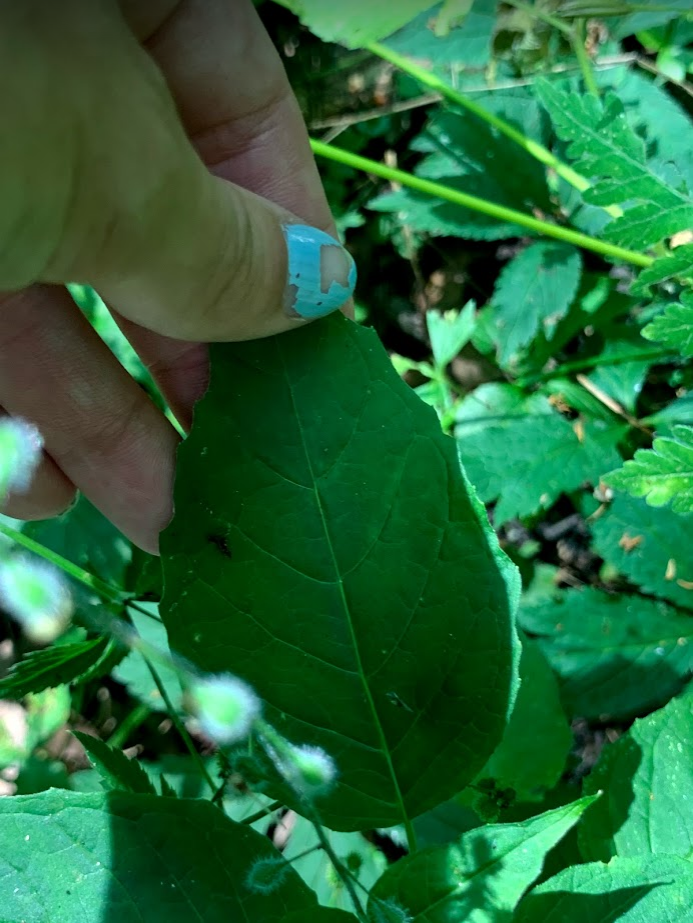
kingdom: Plantae
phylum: Tracheophyta
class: Magnoliopsida
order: Myrtales
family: Onagraceae
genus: Circaea
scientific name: Circaea canadensis
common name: Broad-leaved enchanter's nightshade
